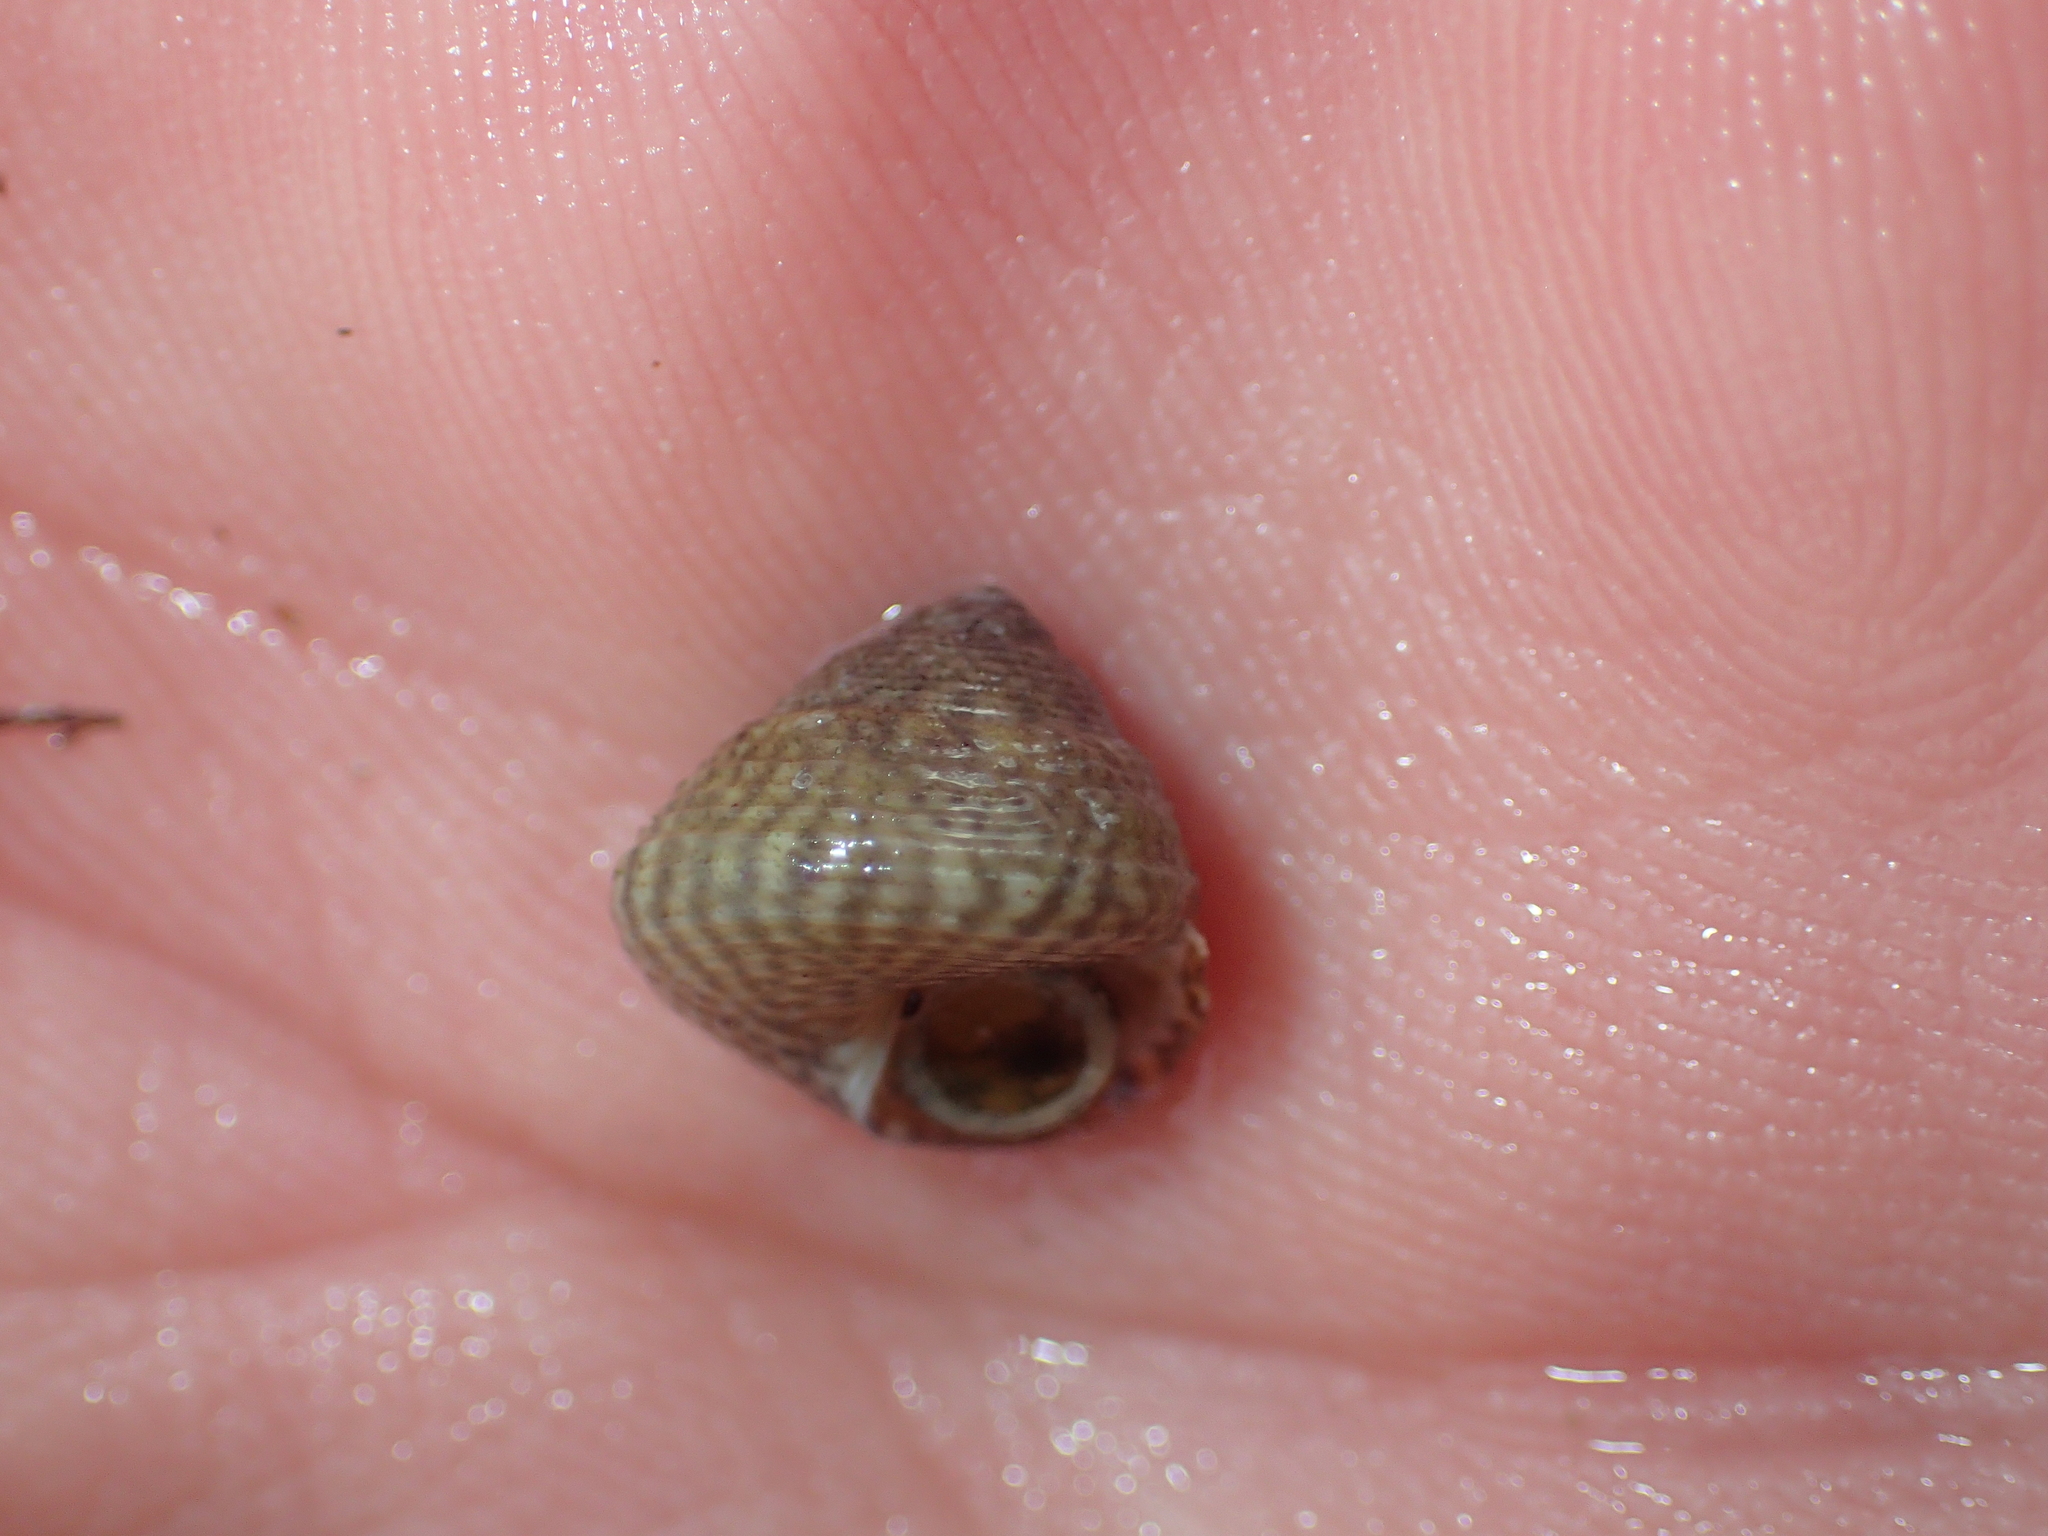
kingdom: Animalia
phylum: Mollusca
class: Gastropoda
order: Trochida
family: Trochidae
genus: Steromphala
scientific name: Steromphala cineraria
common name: Grey top shell
